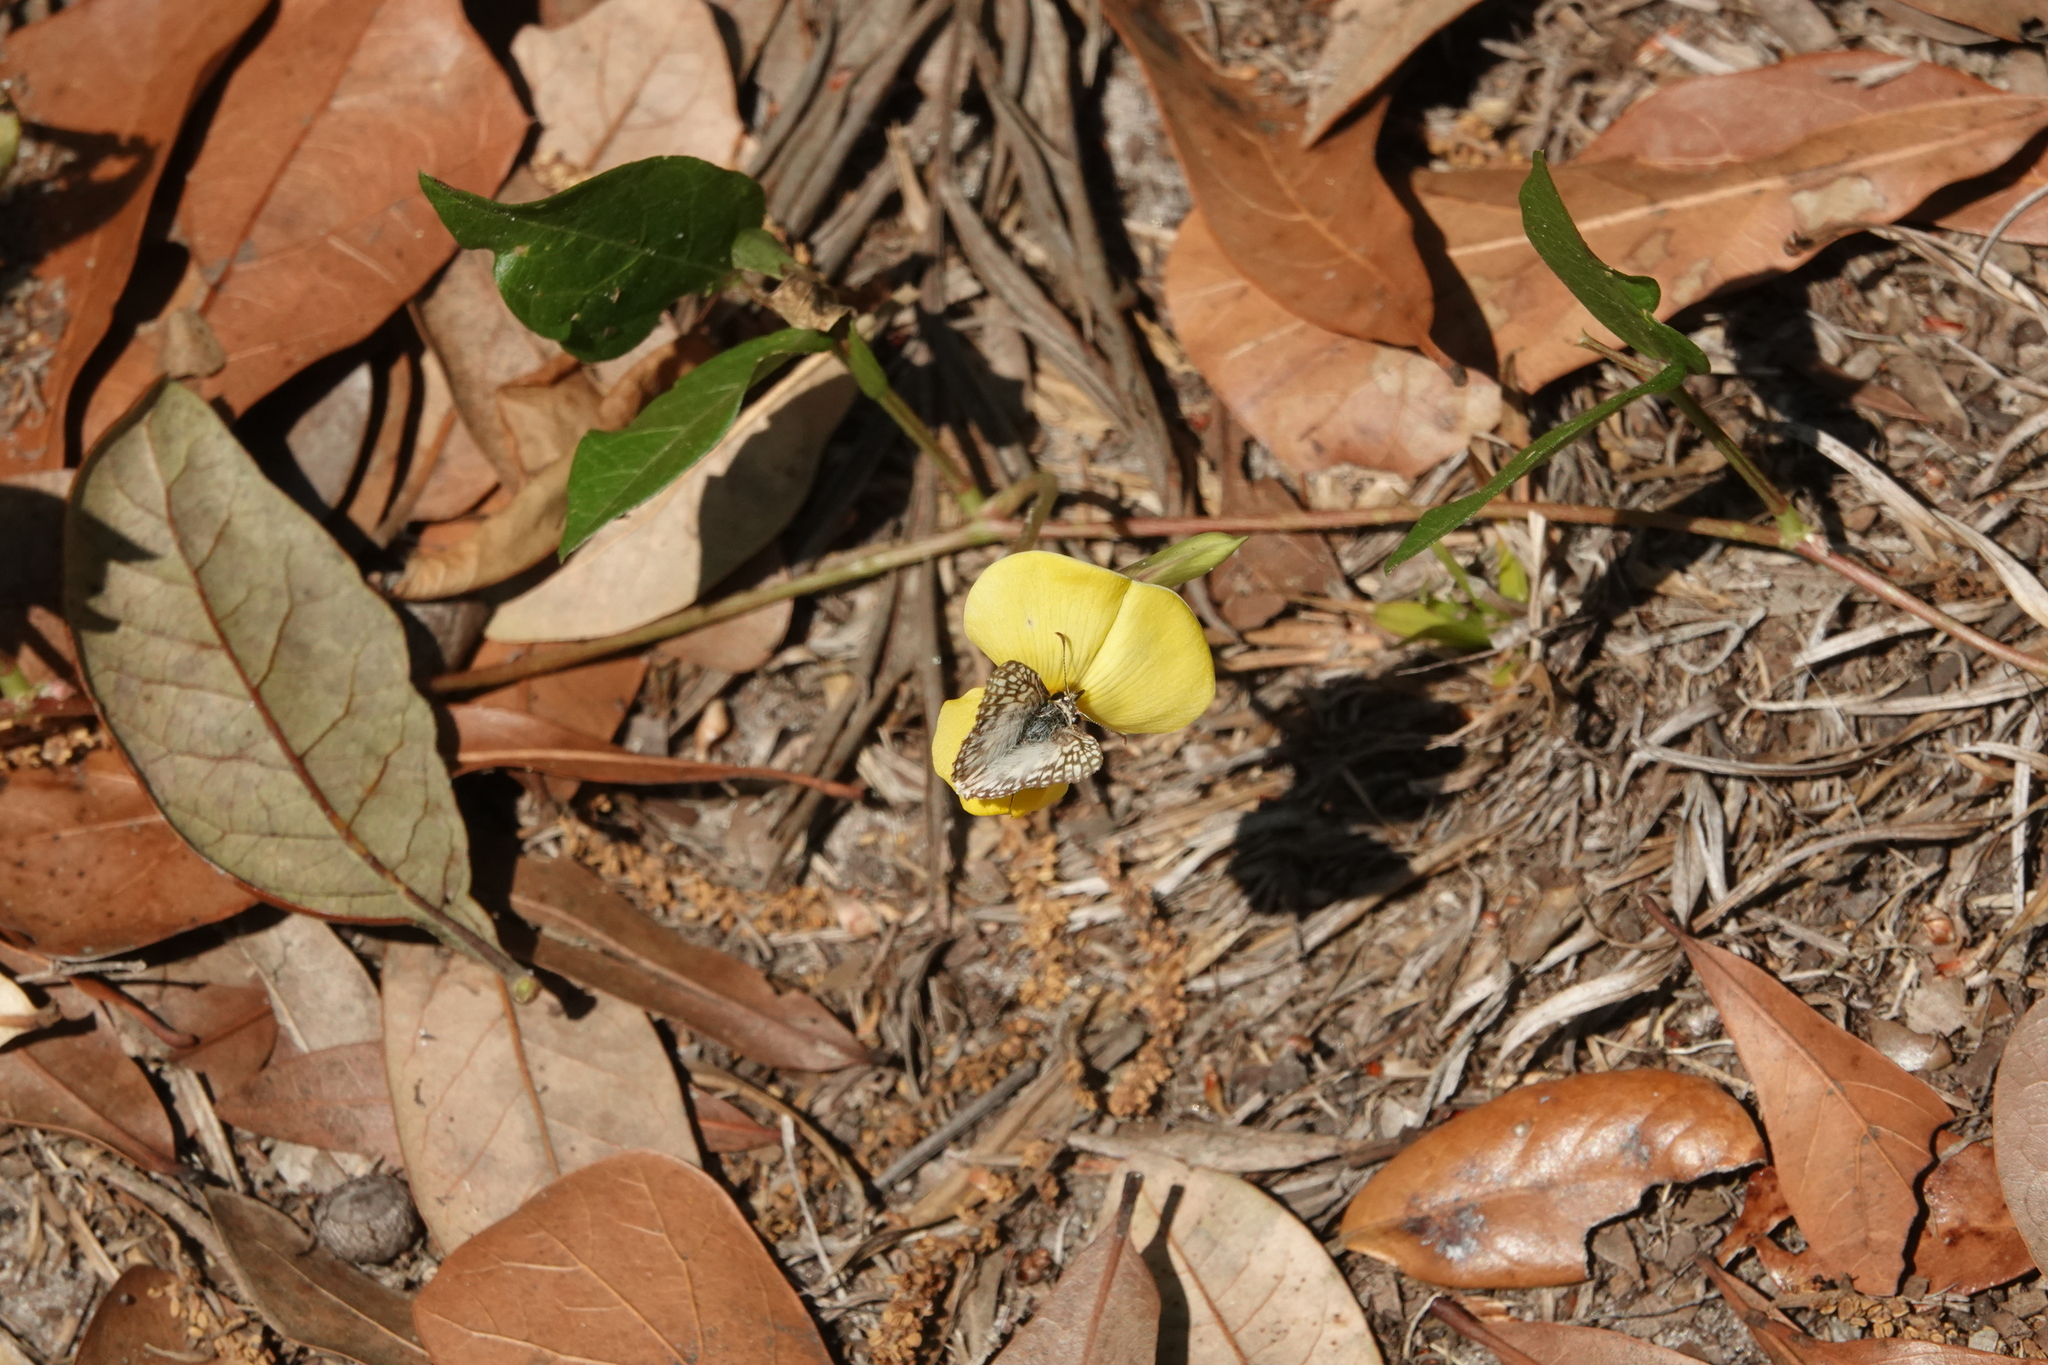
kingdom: Animalia
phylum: Arthropoda
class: Insecta
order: Lepidoptera
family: Hesperiidae
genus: Pyrgus
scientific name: Pyrgus oileus
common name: Tropical checkered-skipper
